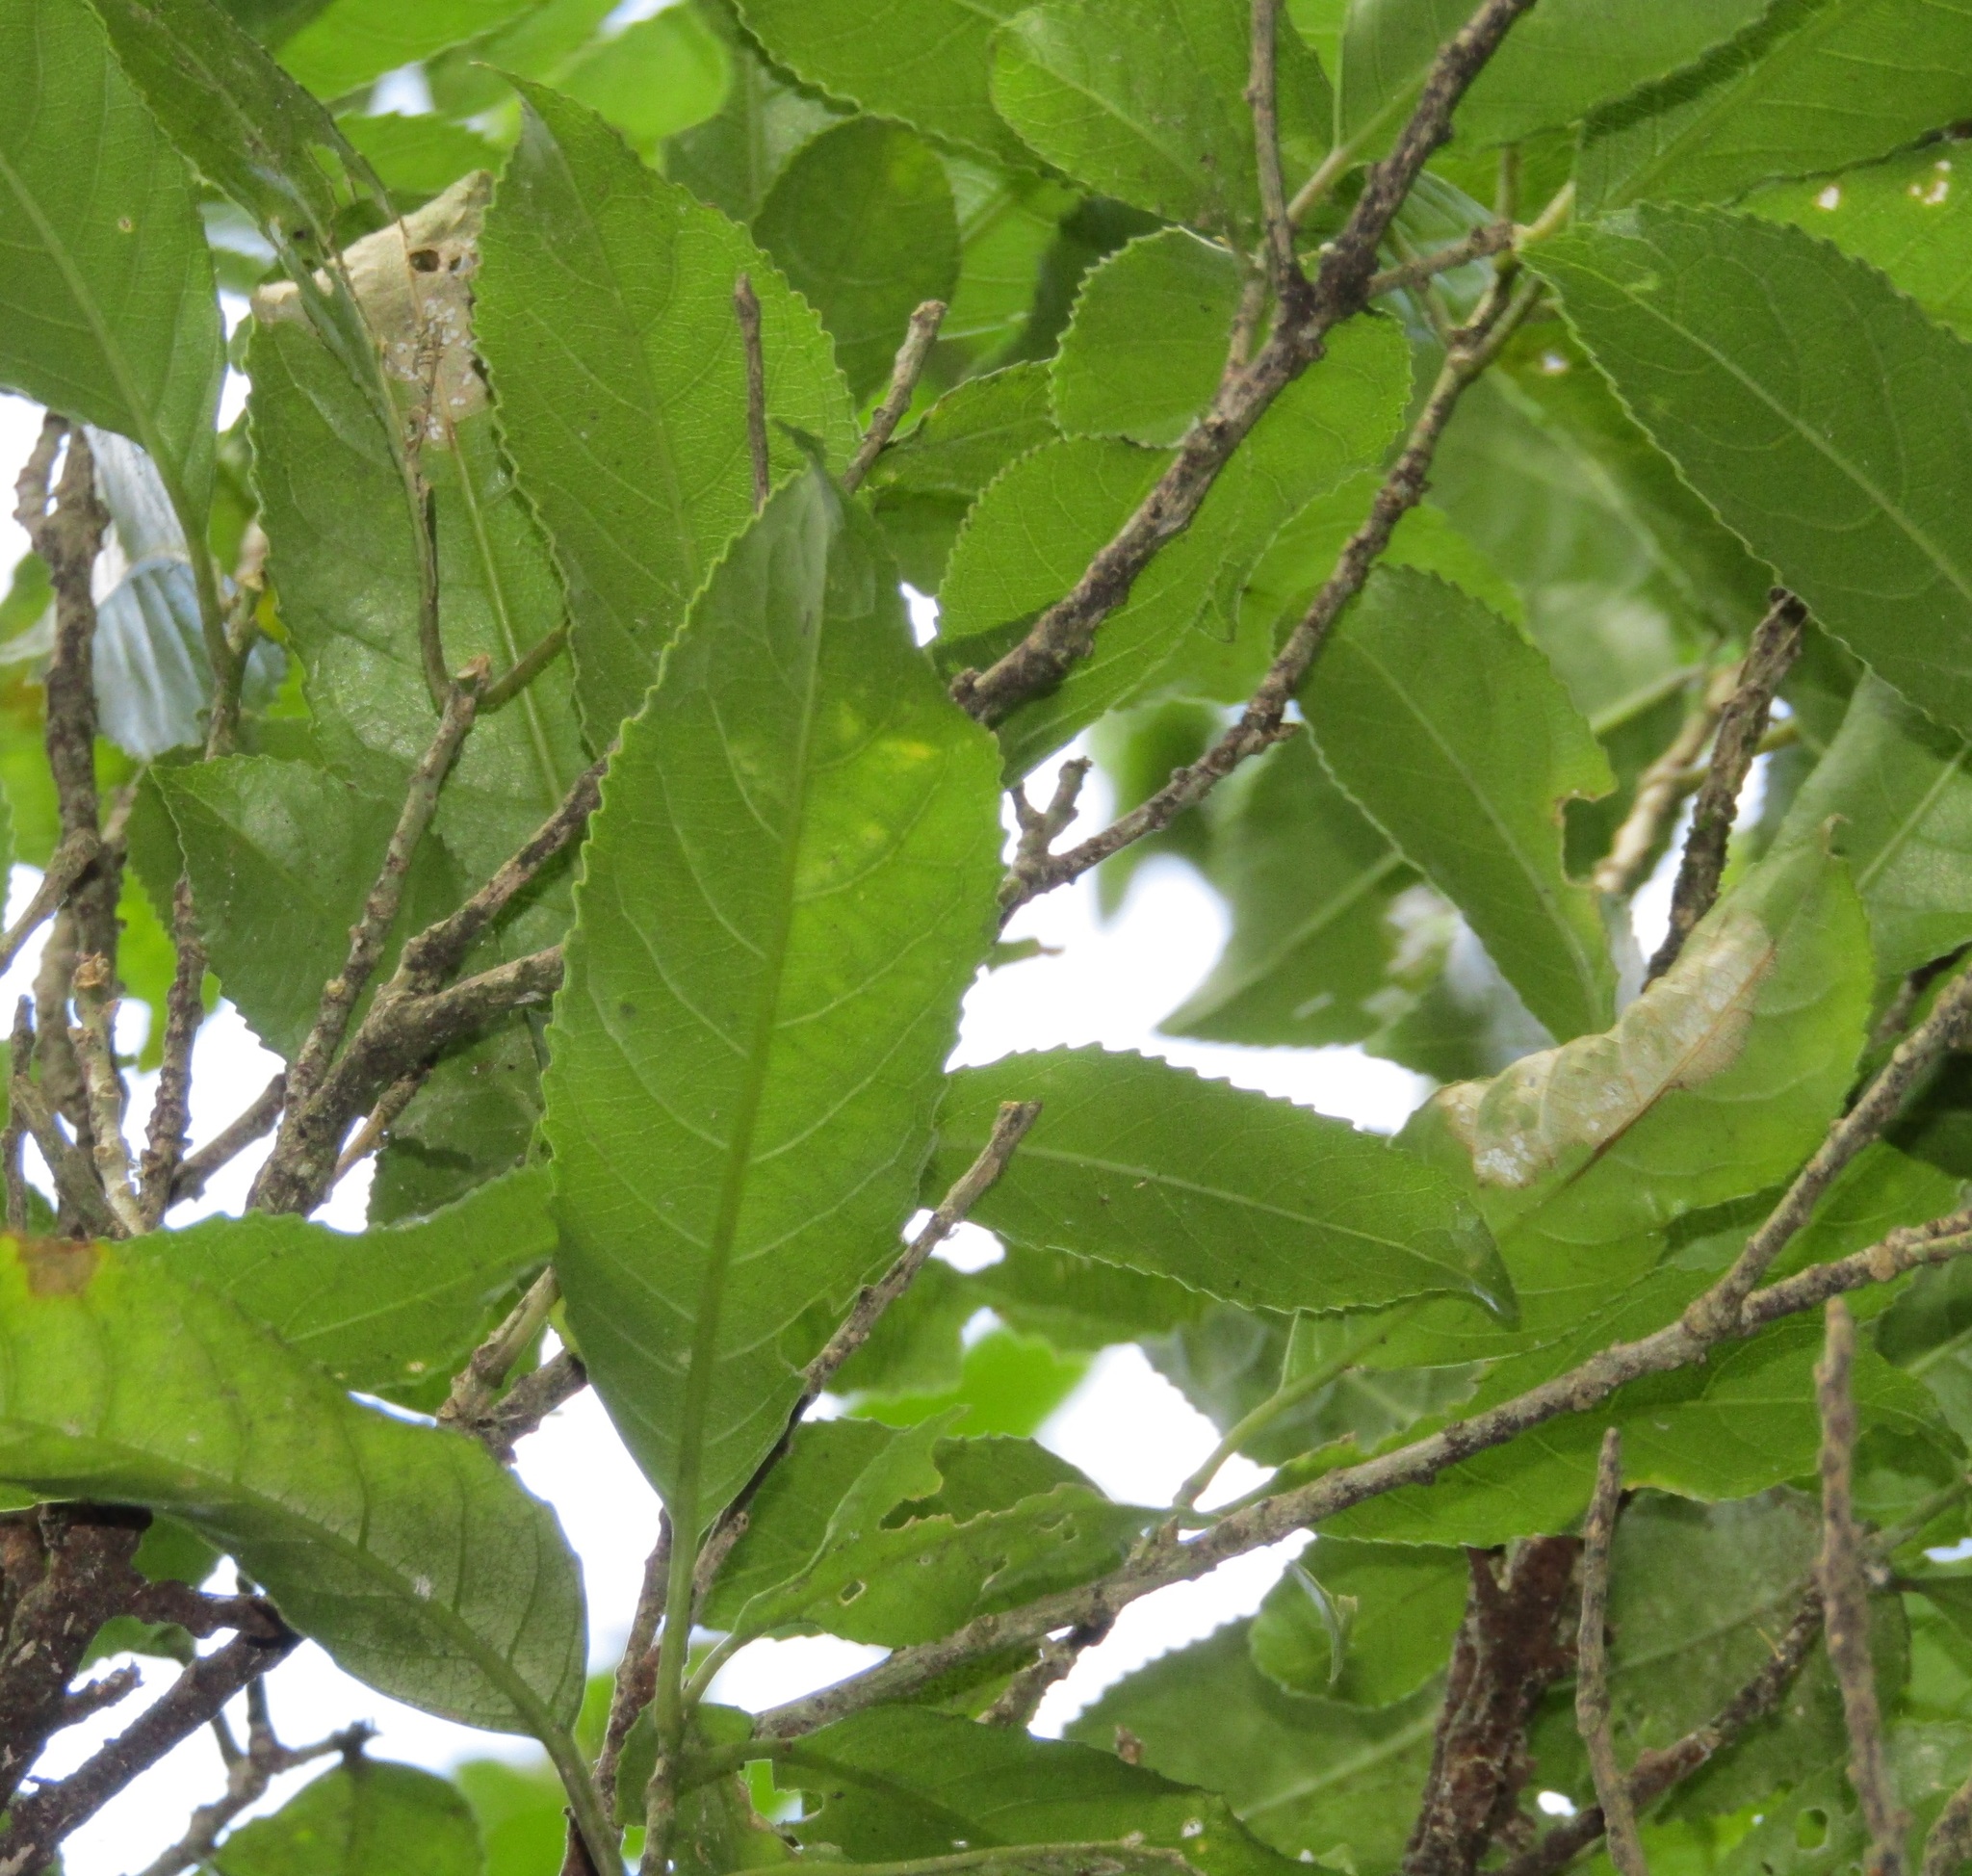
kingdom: Plantae
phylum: Tracheophyta
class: Magnoliopsida
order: Malpighiales
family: Violaceae
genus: Melicytus
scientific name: Melicytus ramiflorus
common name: Mahoe
